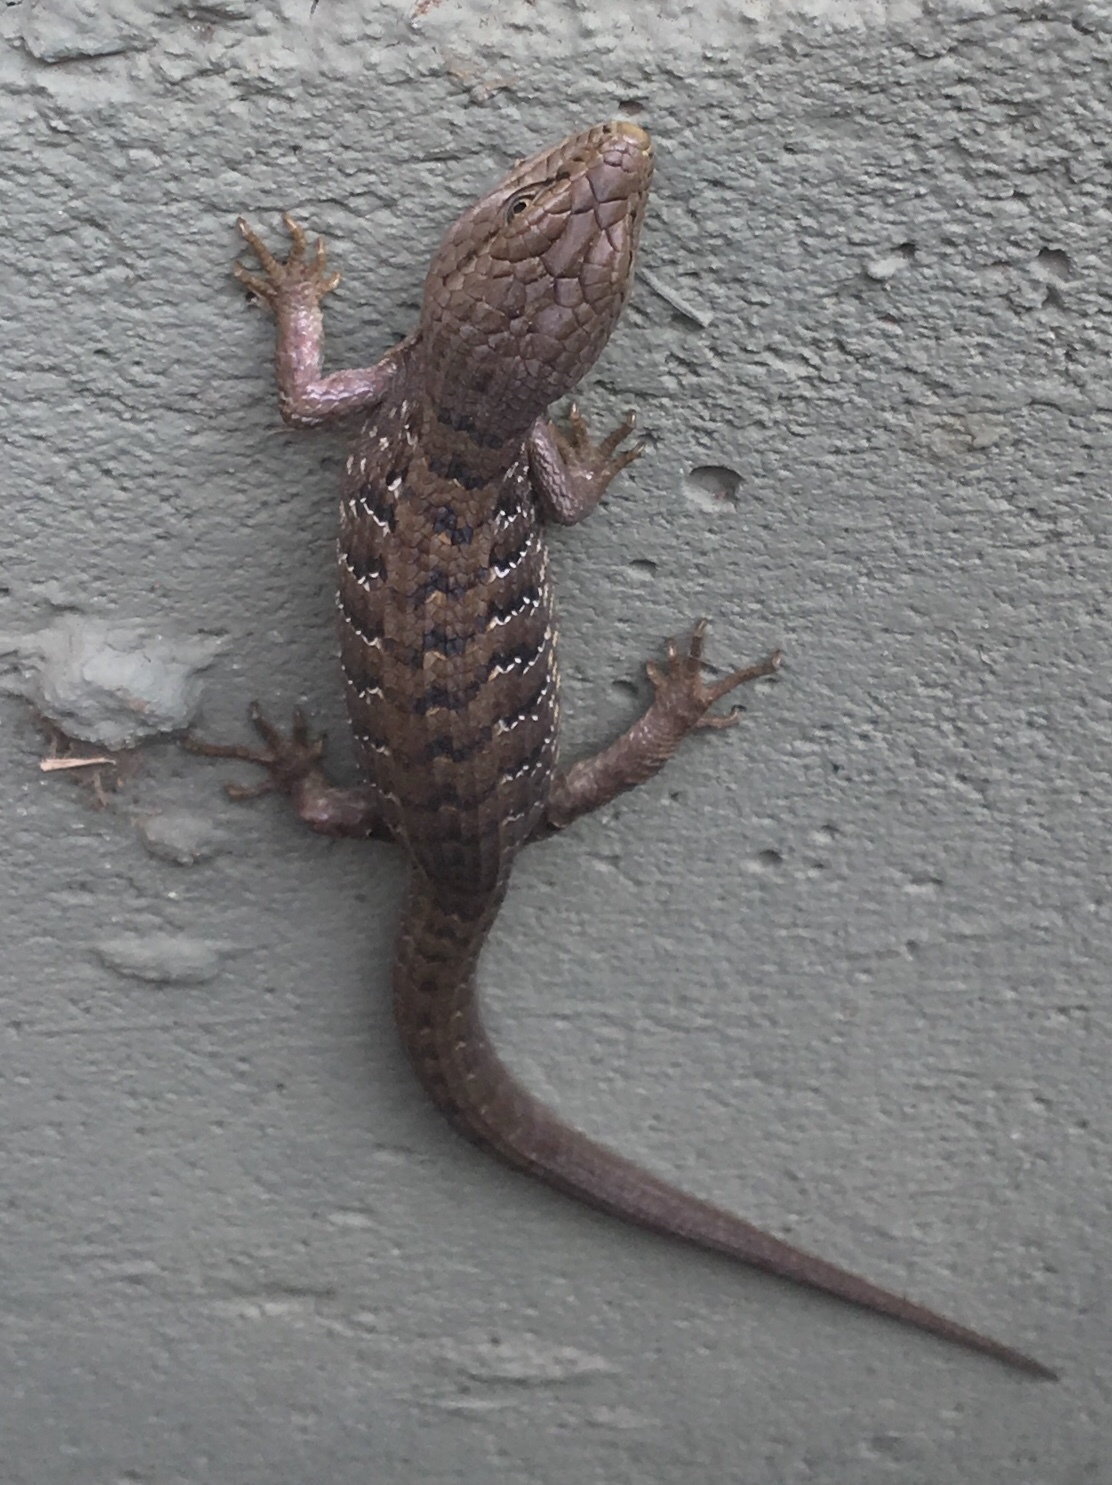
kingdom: Animalia
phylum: Chordata
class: Squamata
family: Anguidae
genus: Elgaria
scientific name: Elgaria multicarinata
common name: Southern alligator lizard
